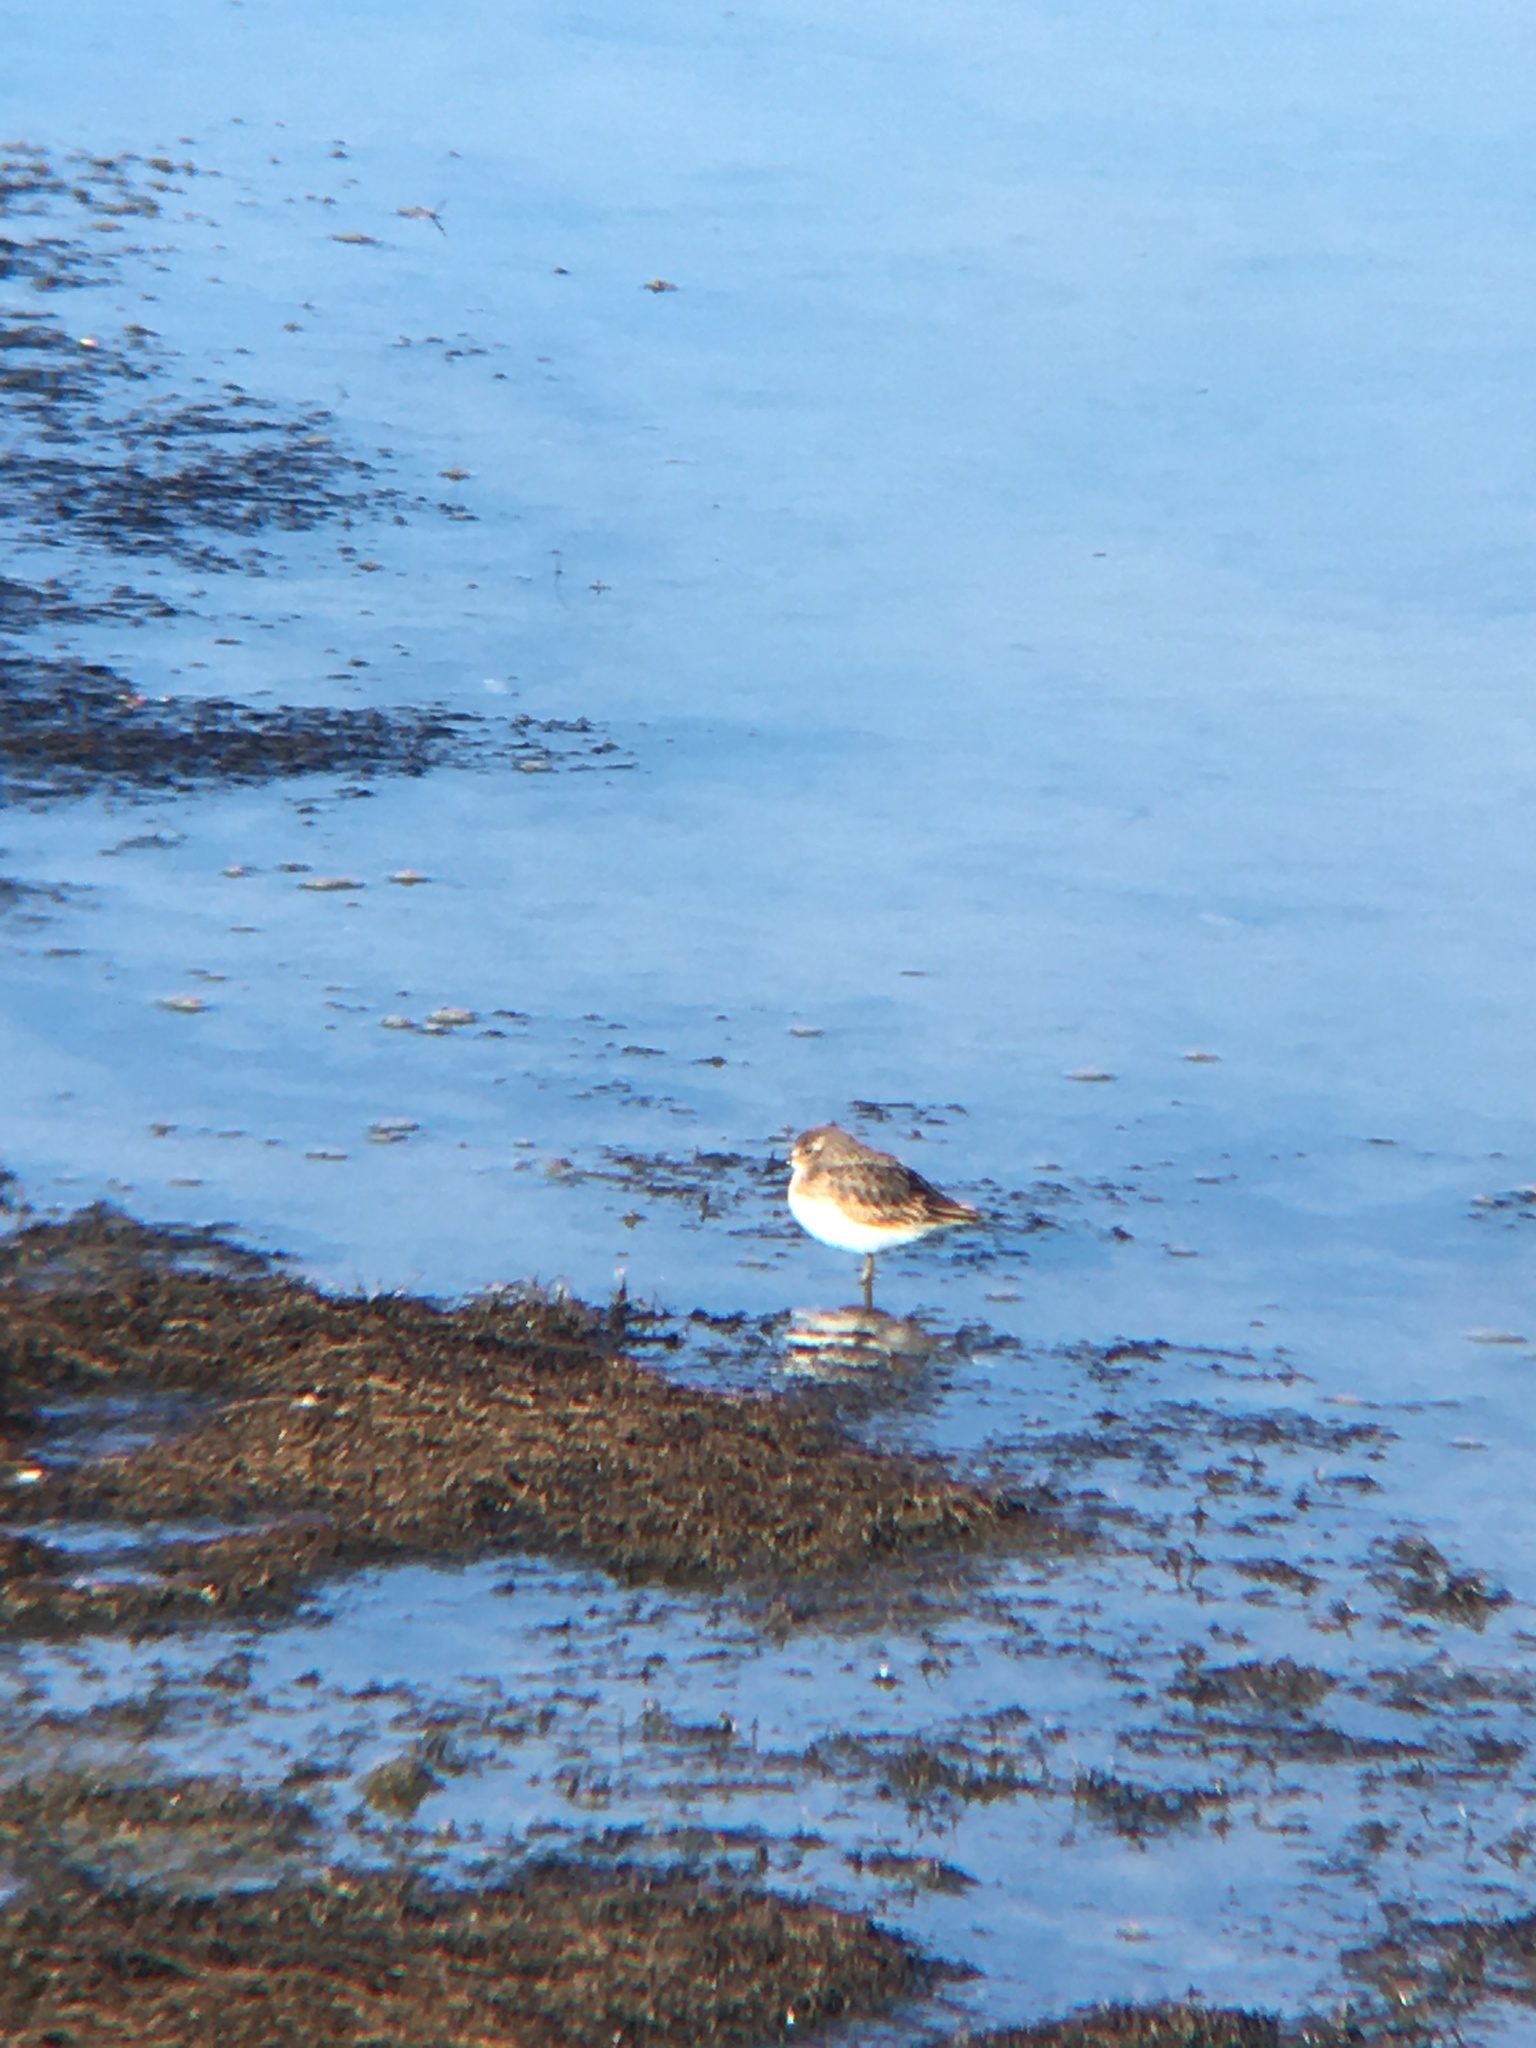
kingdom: Animalia
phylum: Chordata
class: Aves
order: Charadriiformes
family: Scolopacidae
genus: Calidris
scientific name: Calidris minutilla
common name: Least sandpiper
